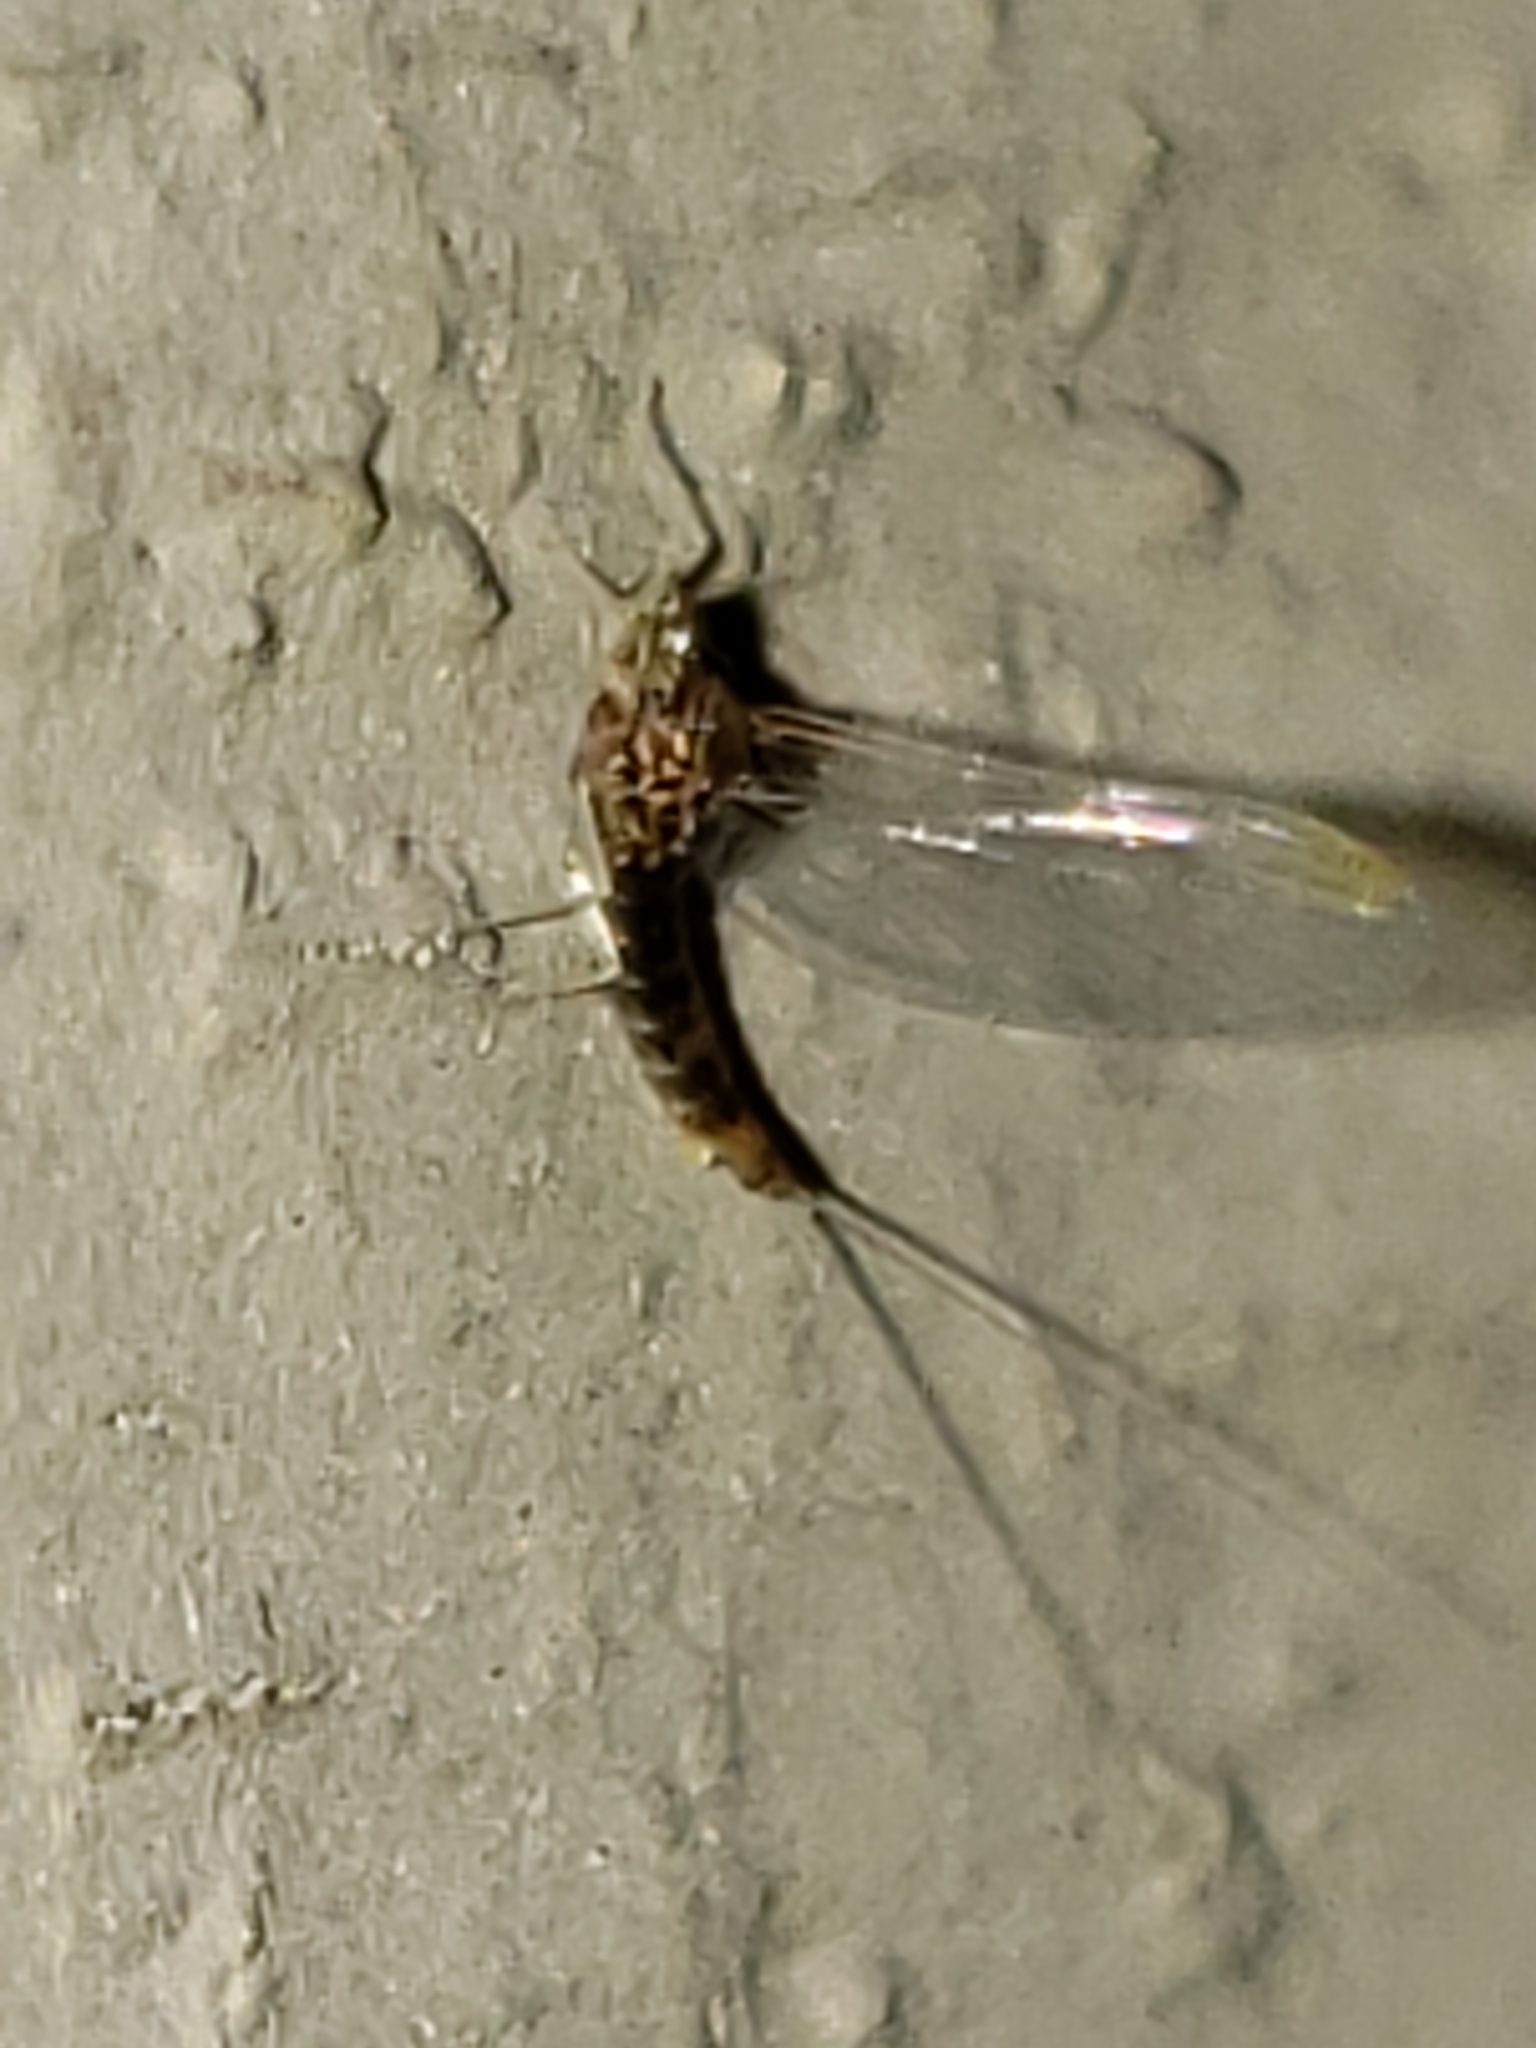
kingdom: Animalia
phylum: Arthropoda
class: Insecta
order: Ephemeroptera
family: Heptageniidae
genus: Leucrocuta
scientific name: Leucrocuta umbratica
